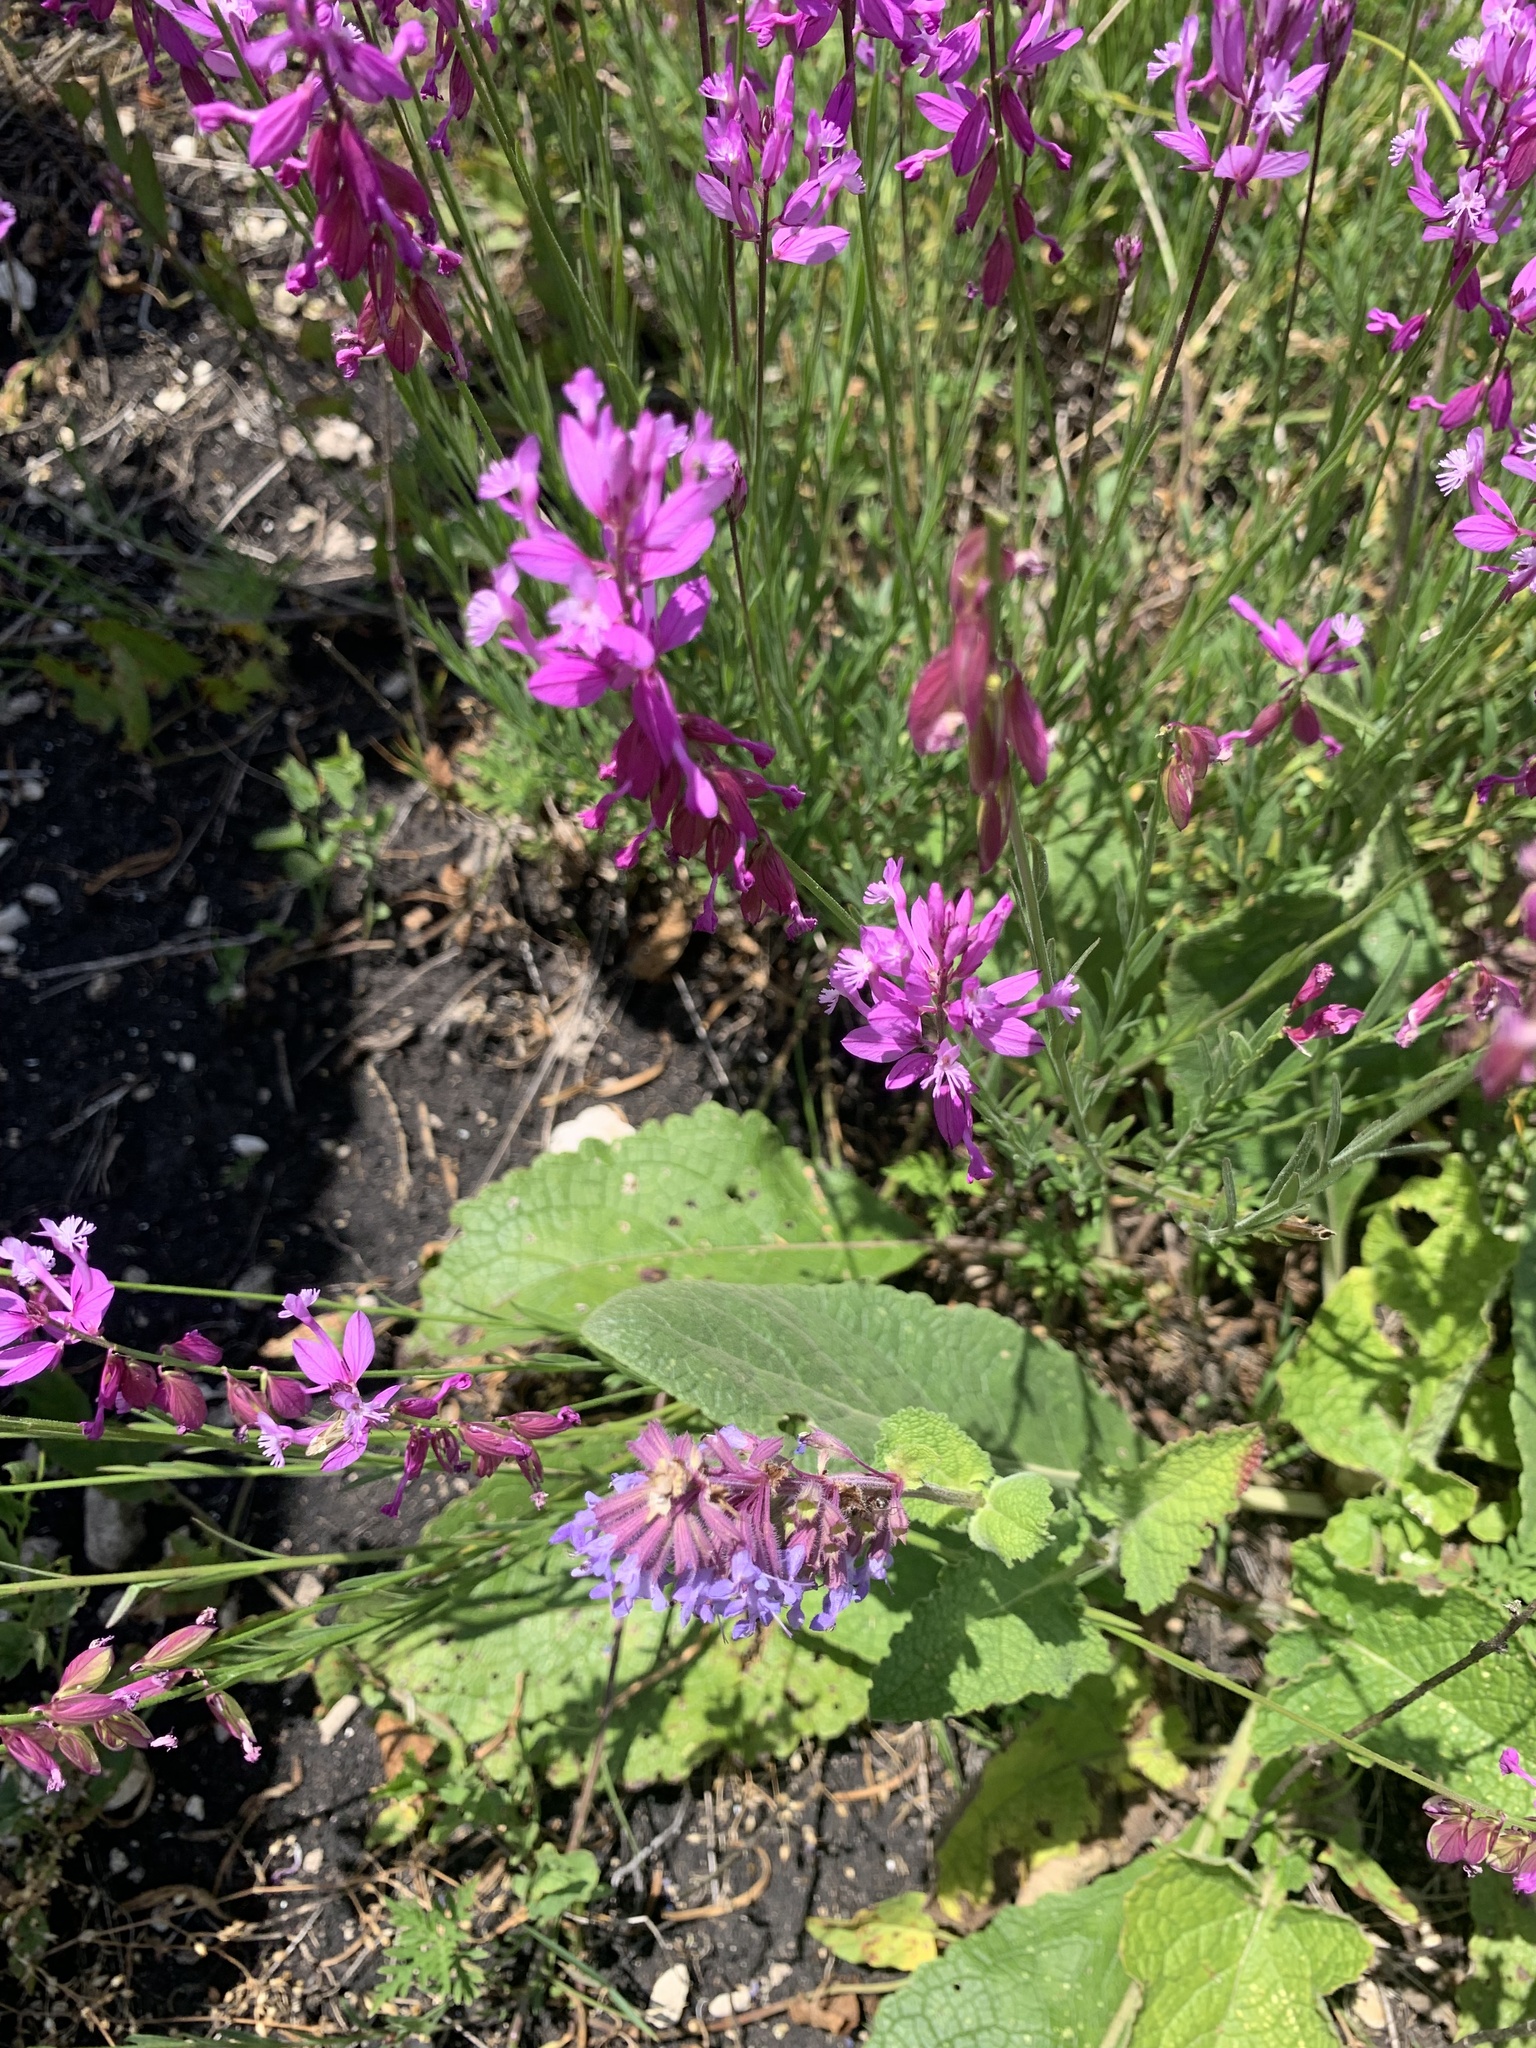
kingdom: Plantae
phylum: Tracheophyta
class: Magnoliopsida
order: Fabales
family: Polygalaceae
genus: Polygala
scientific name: Polygala major
